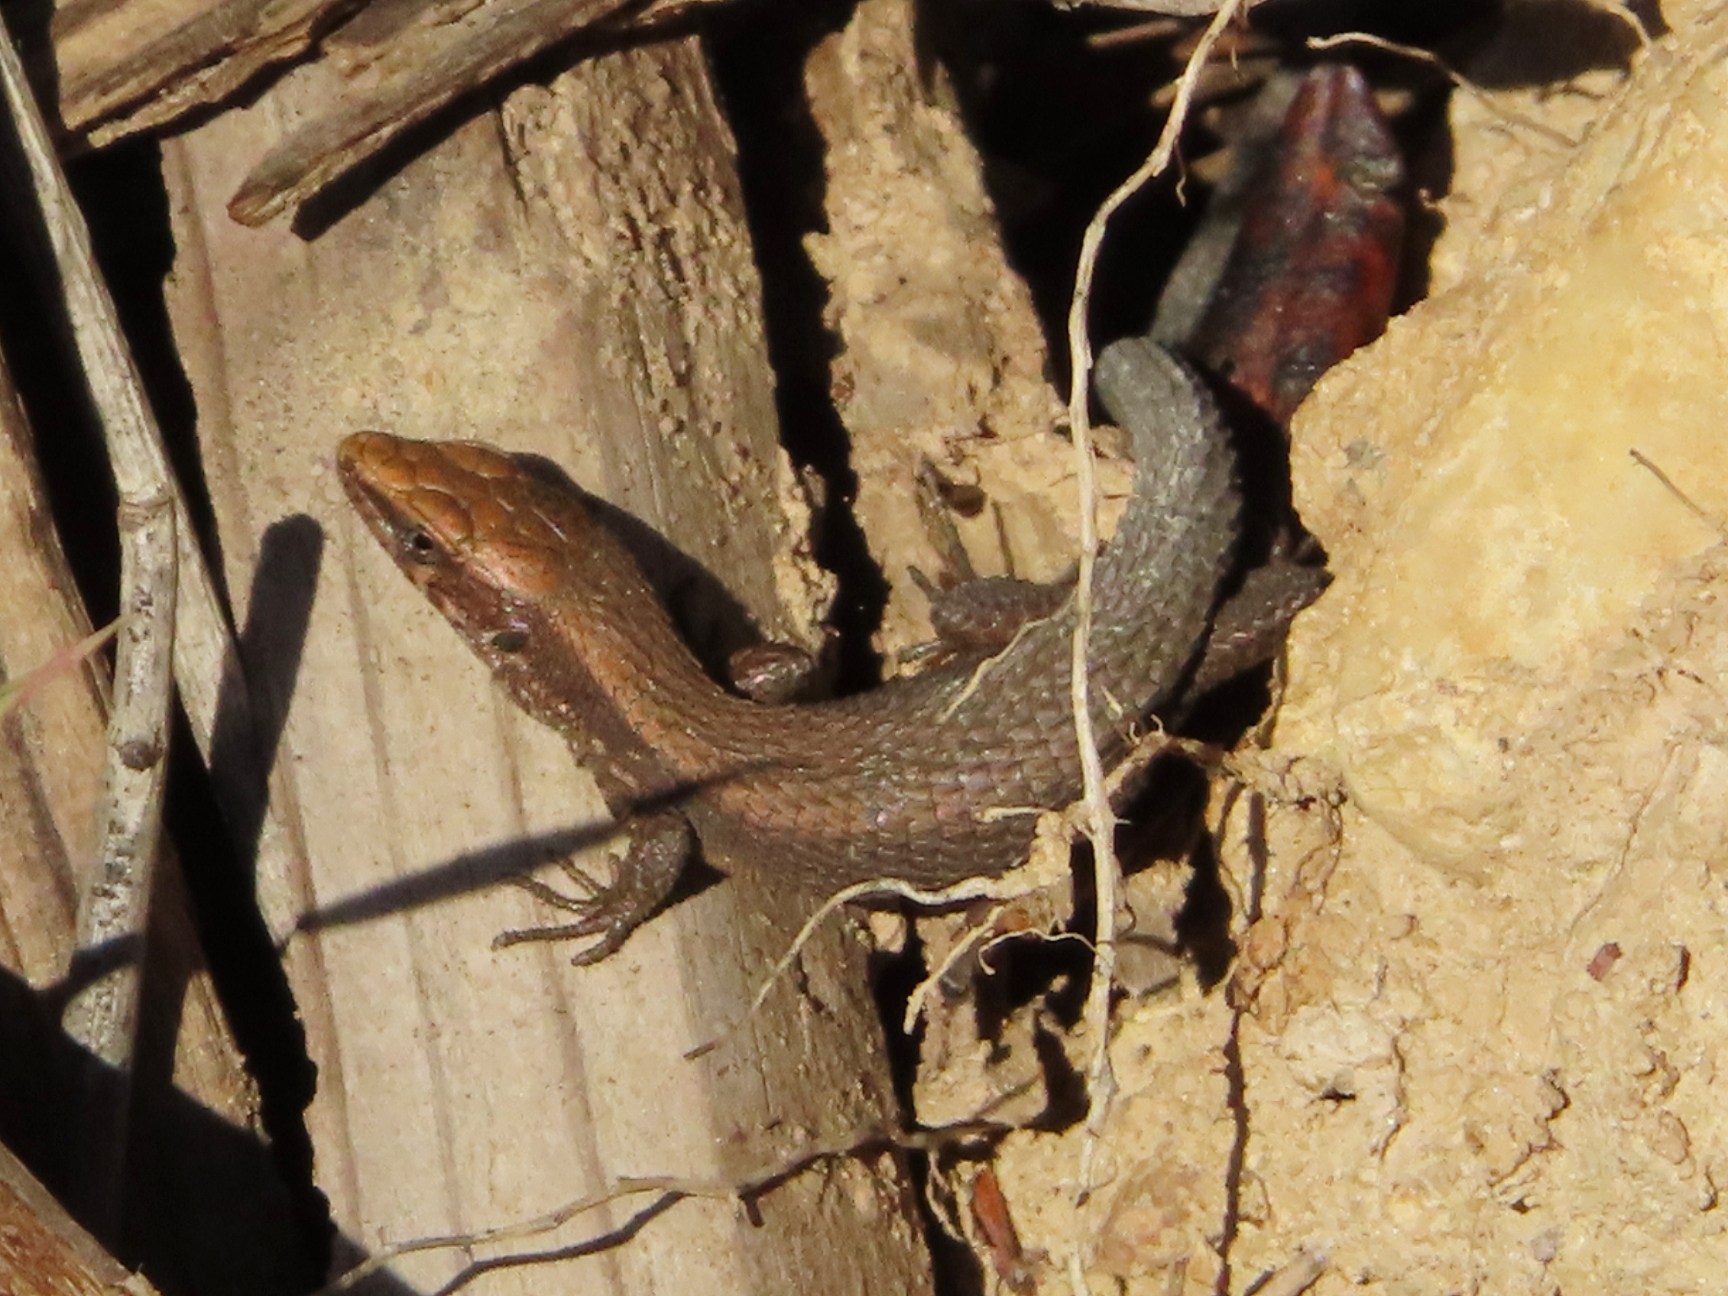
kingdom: Animalia
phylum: Chordata
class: Squamata
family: Lacertidae
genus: Algyroides
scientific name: Algyroides moreoticus
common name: Greek algyroides
